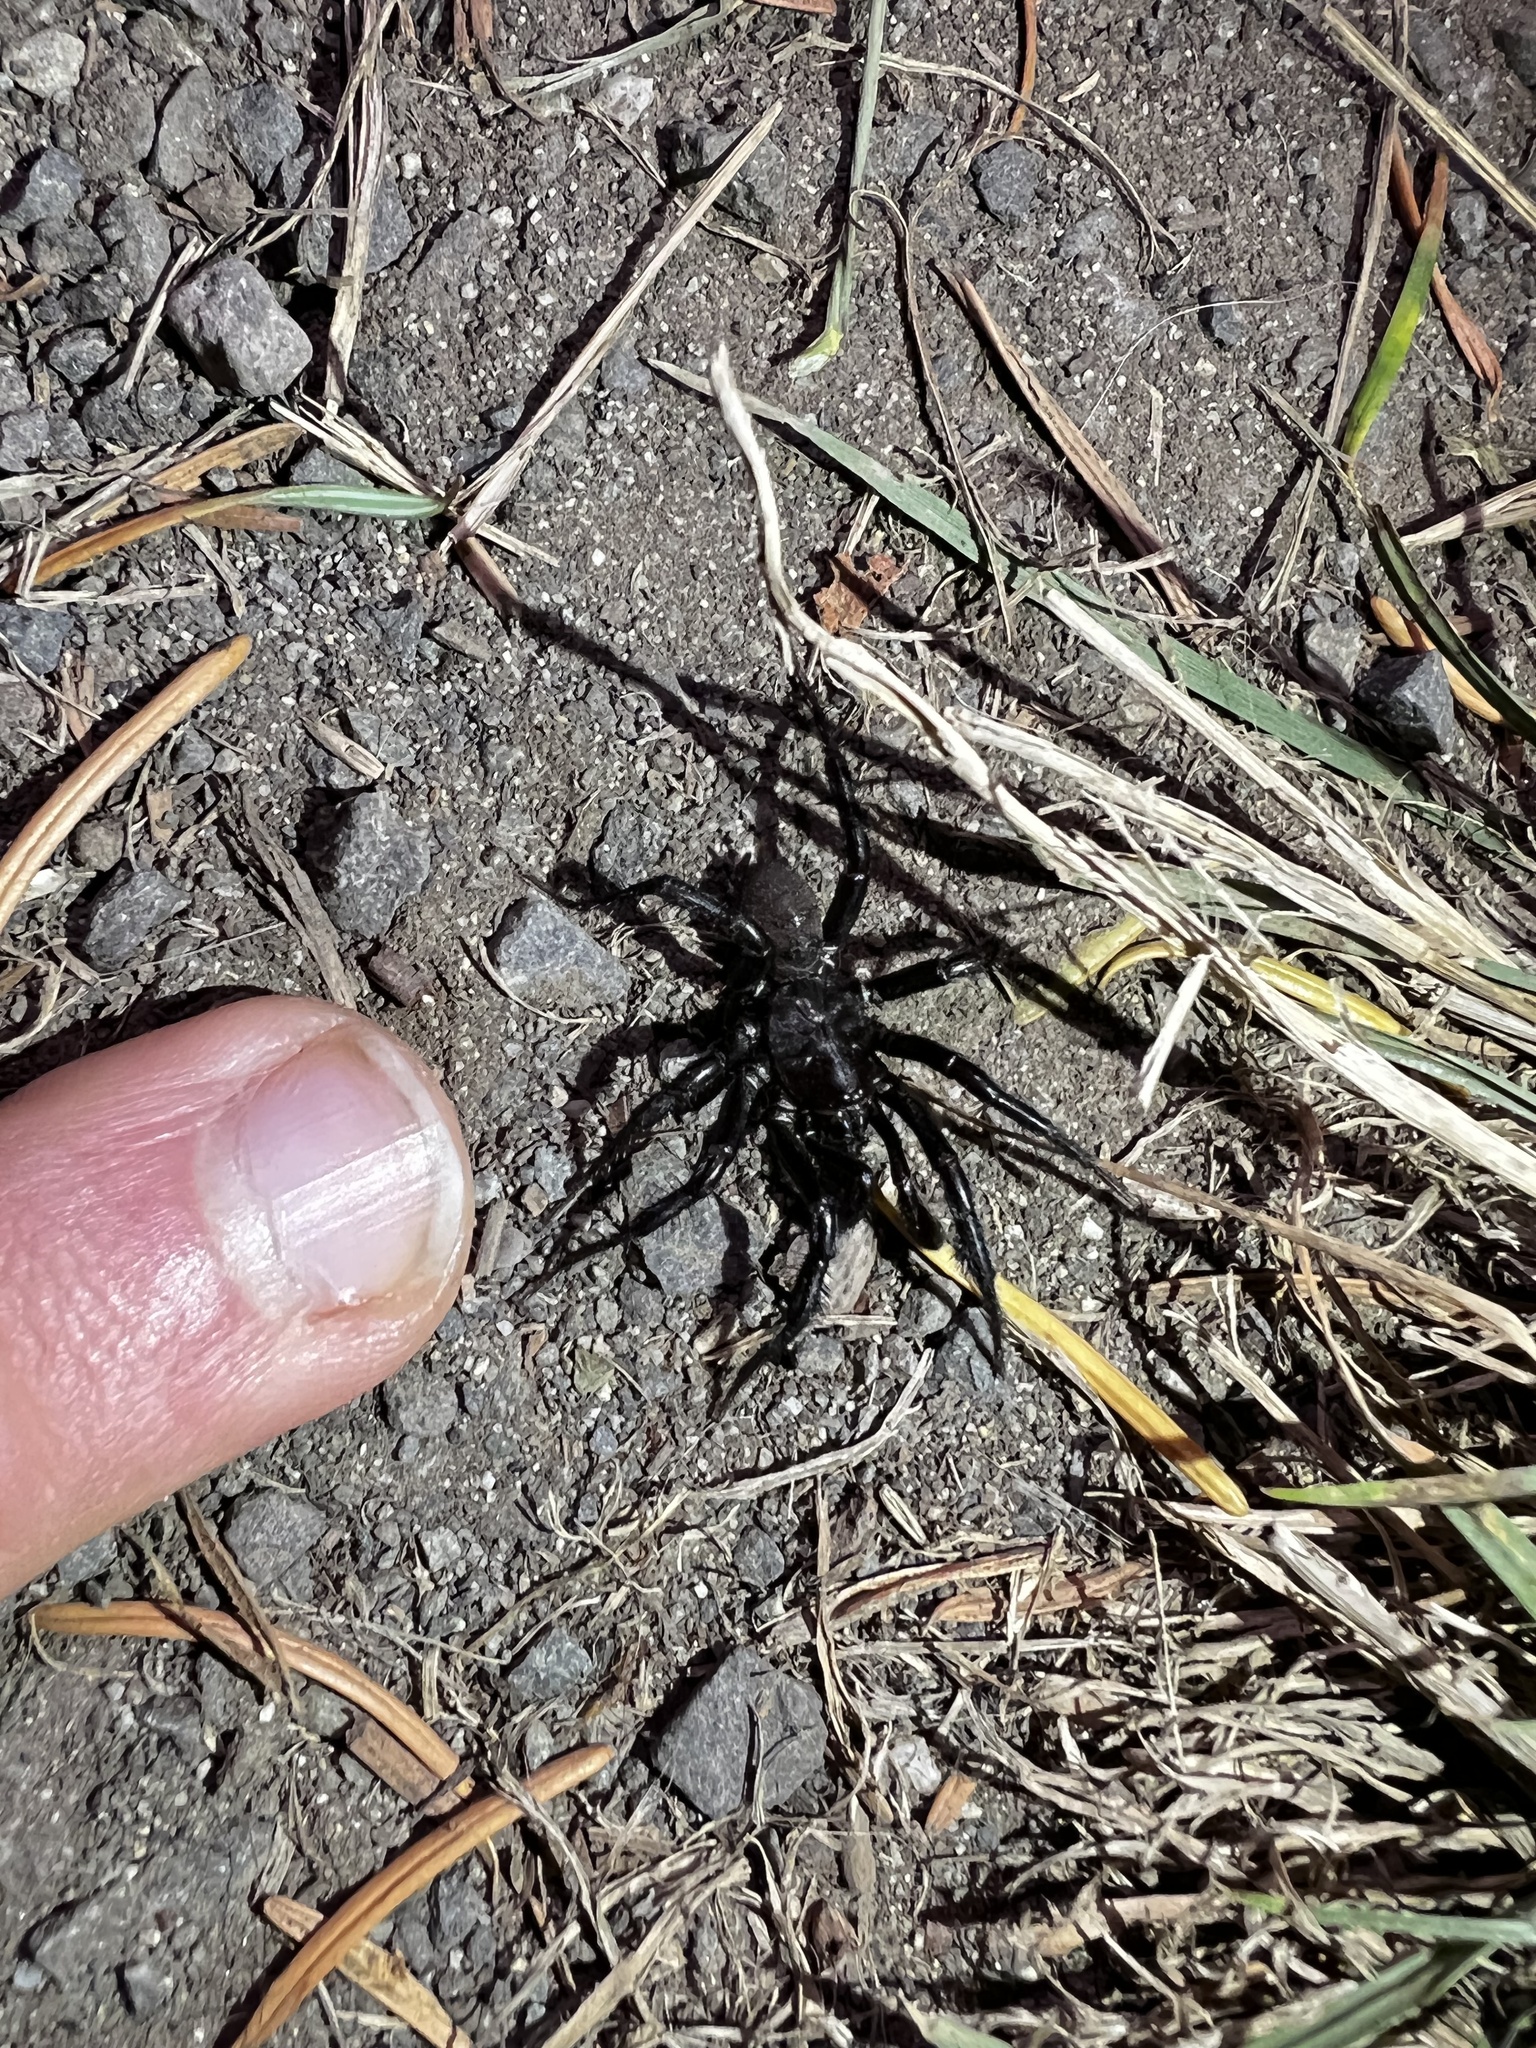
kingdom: Animalia
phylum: Arthropoda
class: Arachnida
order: Araneae
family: Antrodiaetidae
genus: Antrodiaetus
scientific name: Antrodiaetus pacificus
